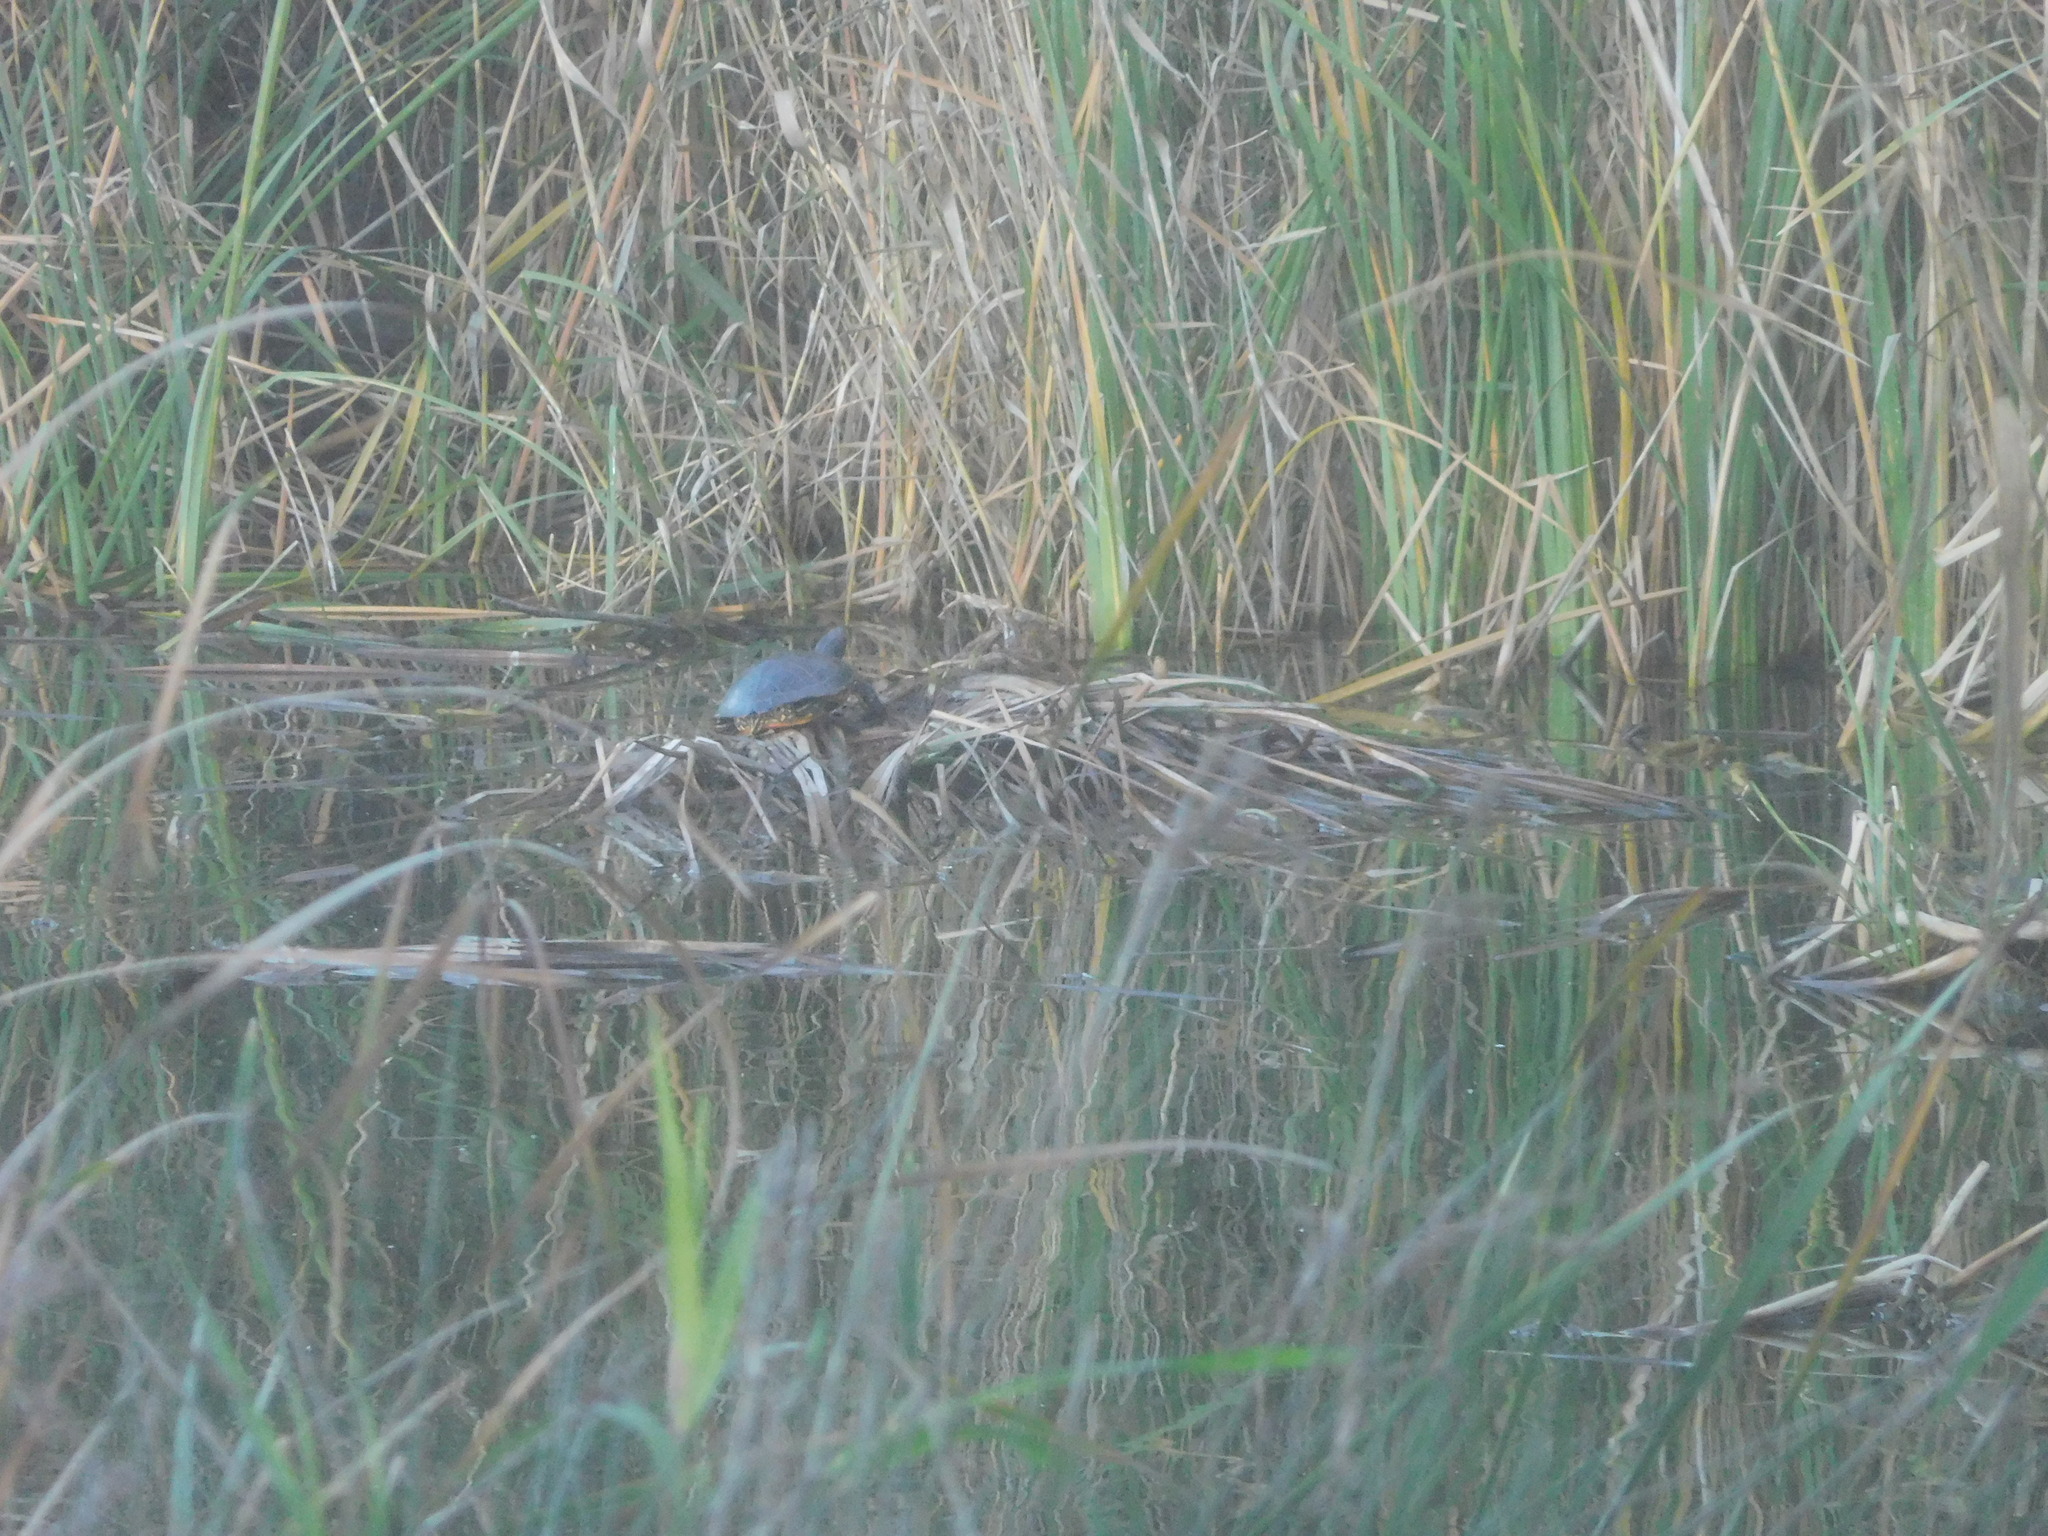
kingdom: Animalia
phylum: Chordata
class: Testudines
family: Emydidae
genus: Trachemys
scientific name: Trachemys scripta
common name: Slider
